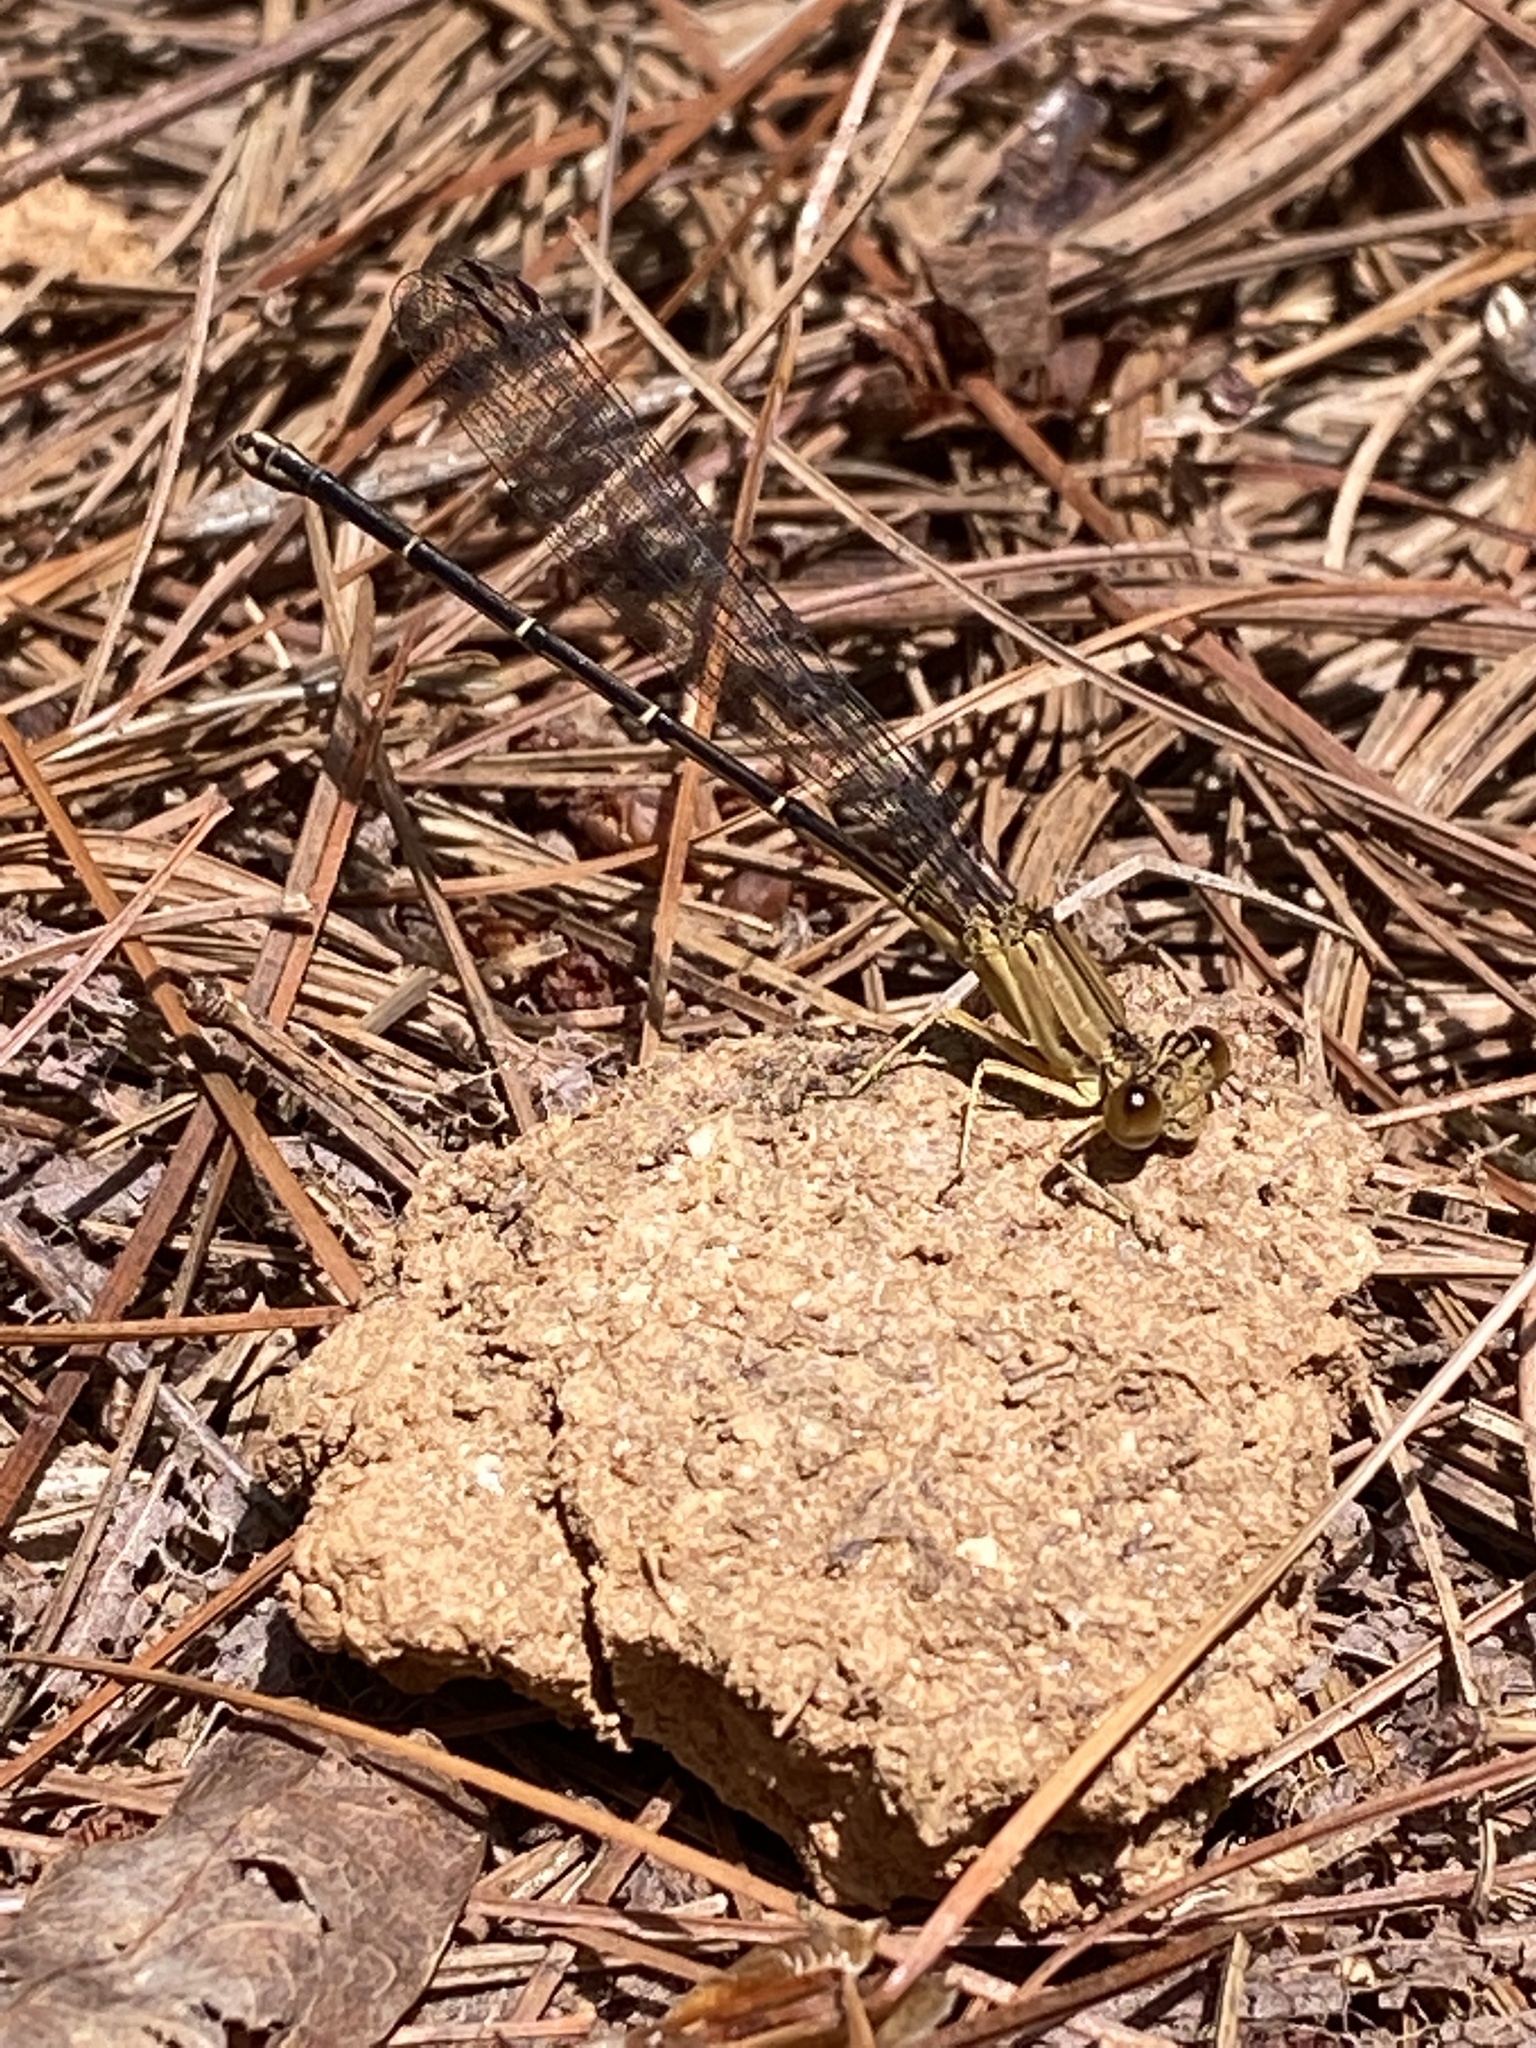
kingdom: Animalia
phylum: Arthropoda
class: Insecta
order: Odonata
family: Coenagrionidae
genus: Argia
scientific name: Argia apicalis
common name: Blue-fronted dancer
